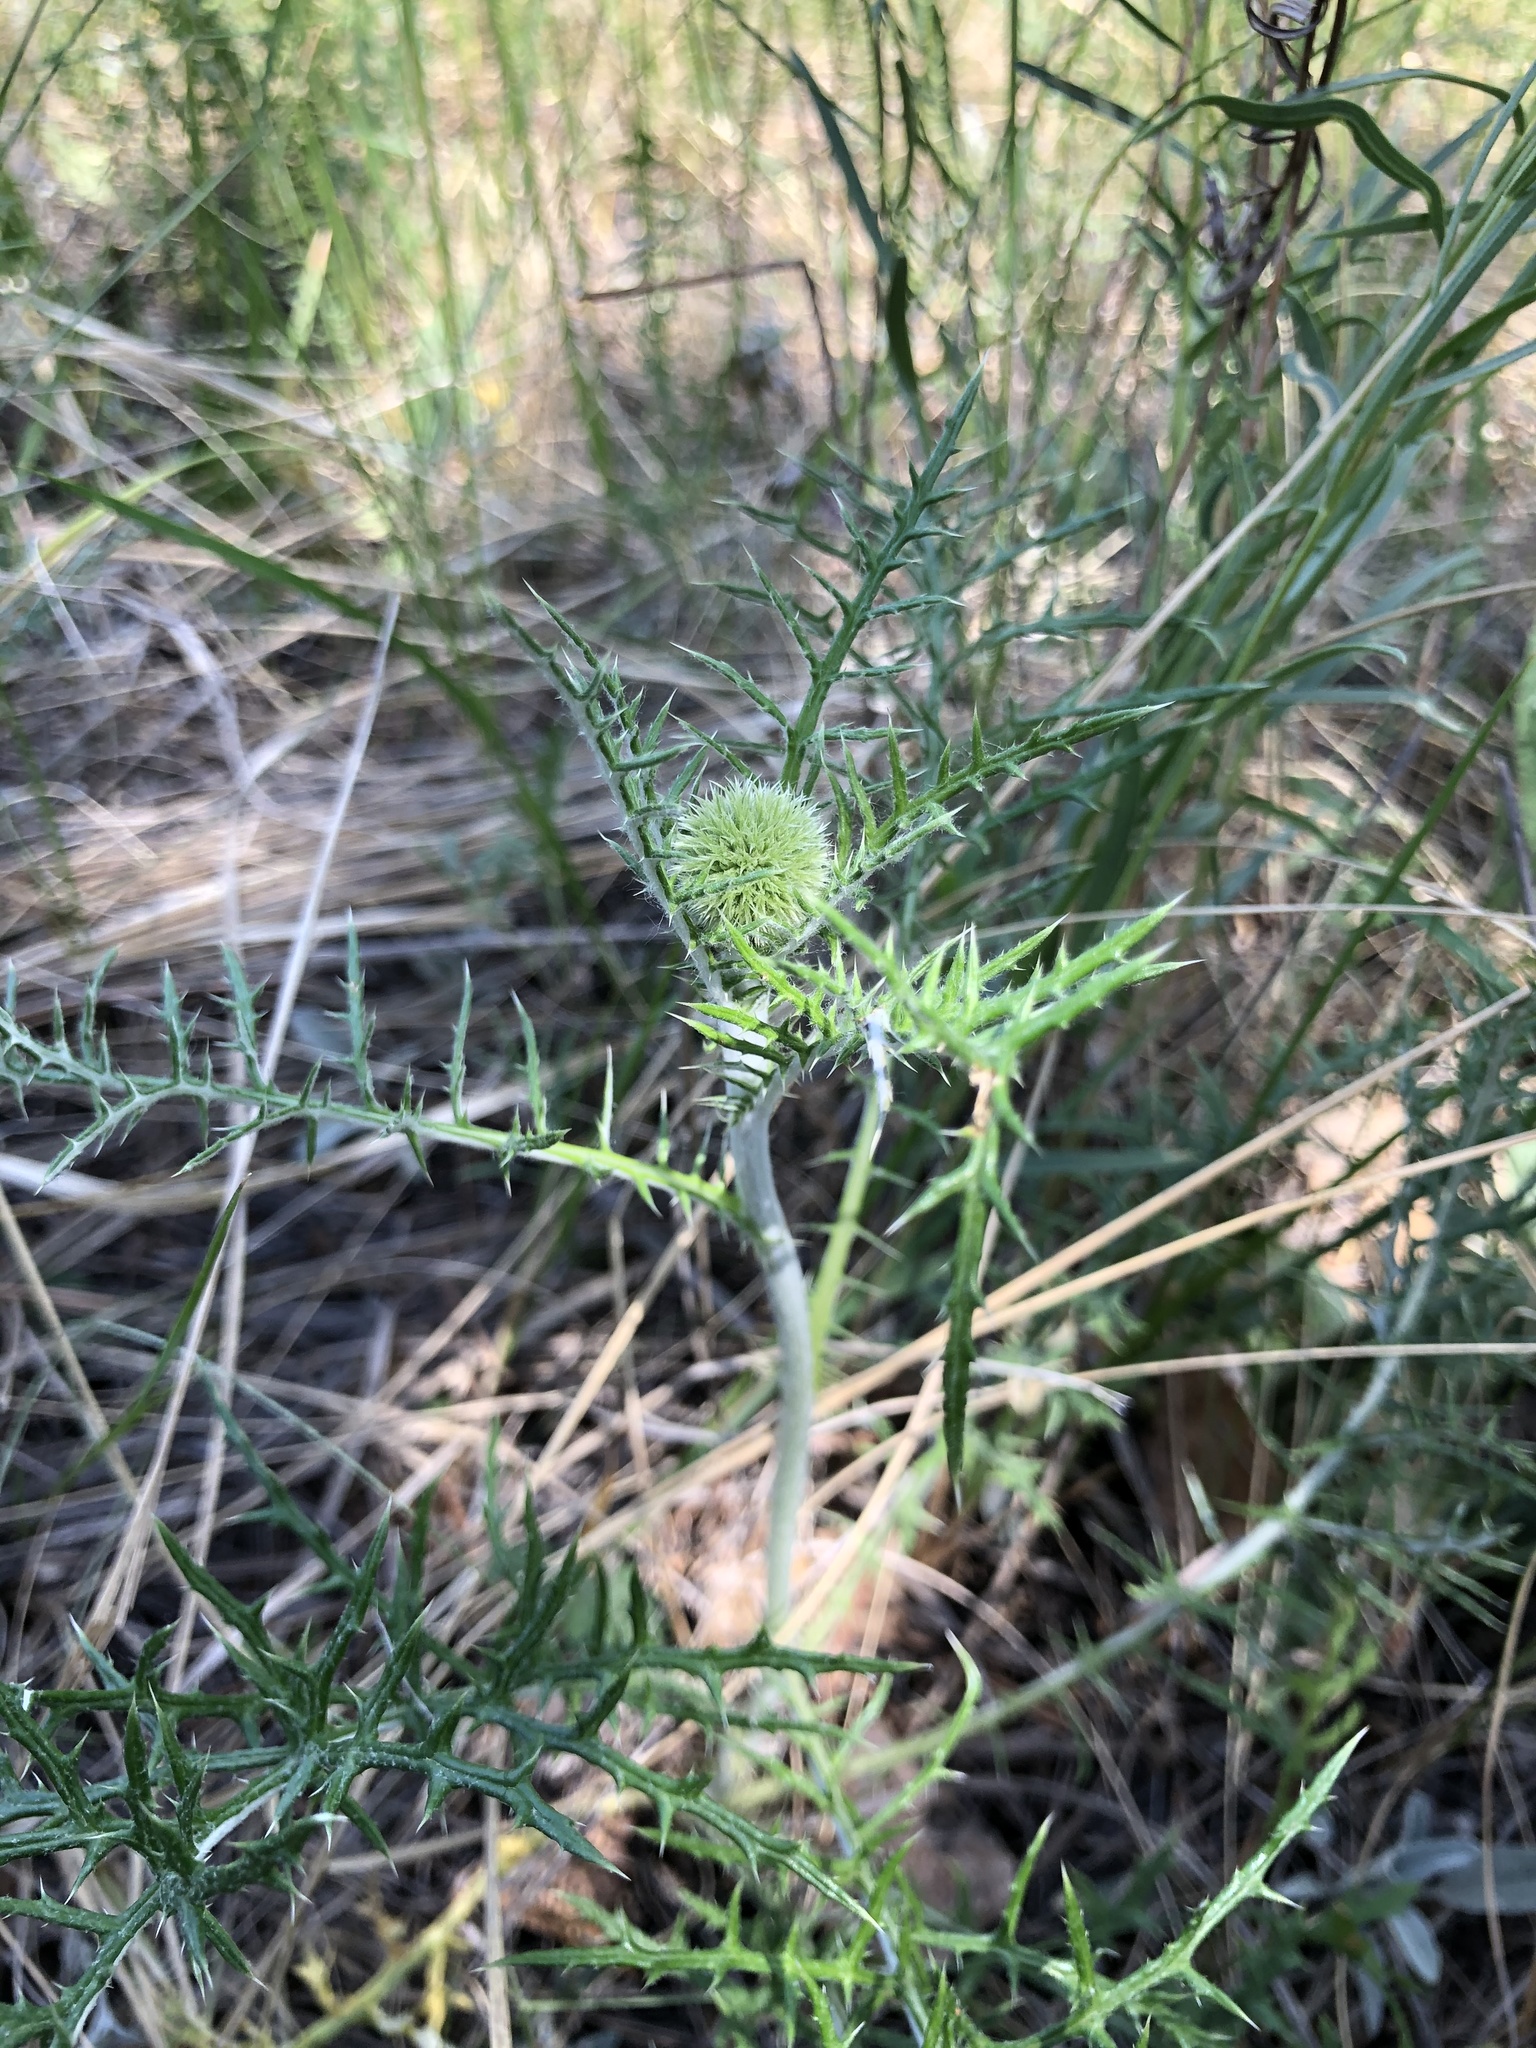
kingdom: Plantae
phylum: Tracheophyta
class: Magnoliopsida
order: Asterales
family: Asteraceae
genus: Echinops
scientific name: Echinops ritro
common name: Globe thistle
